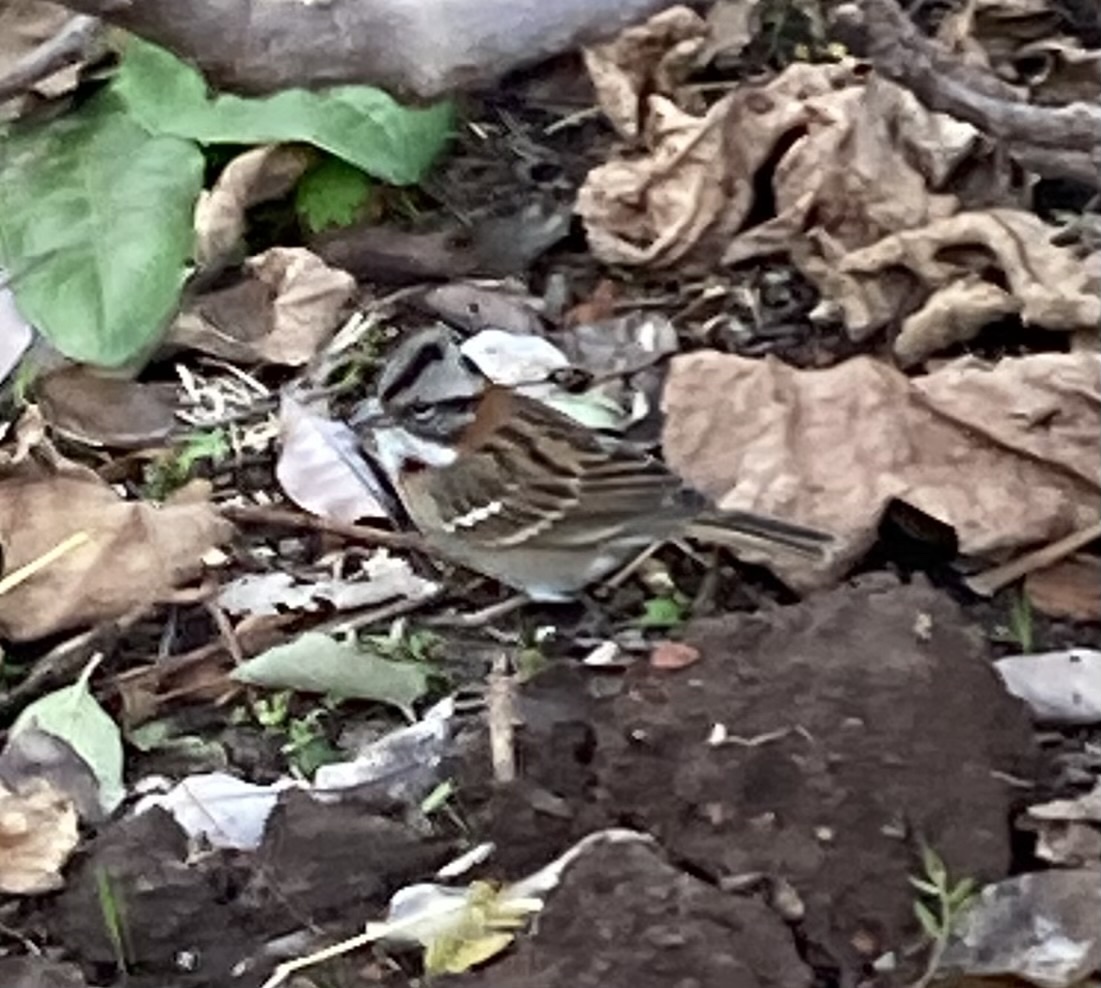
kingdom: Animalia
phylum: Chordata
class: Aves
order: Passeriformes
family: Passerellidae
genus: Zonotrichia
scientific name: Zonotrichia capensis
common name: Rufous-collared sparrow
